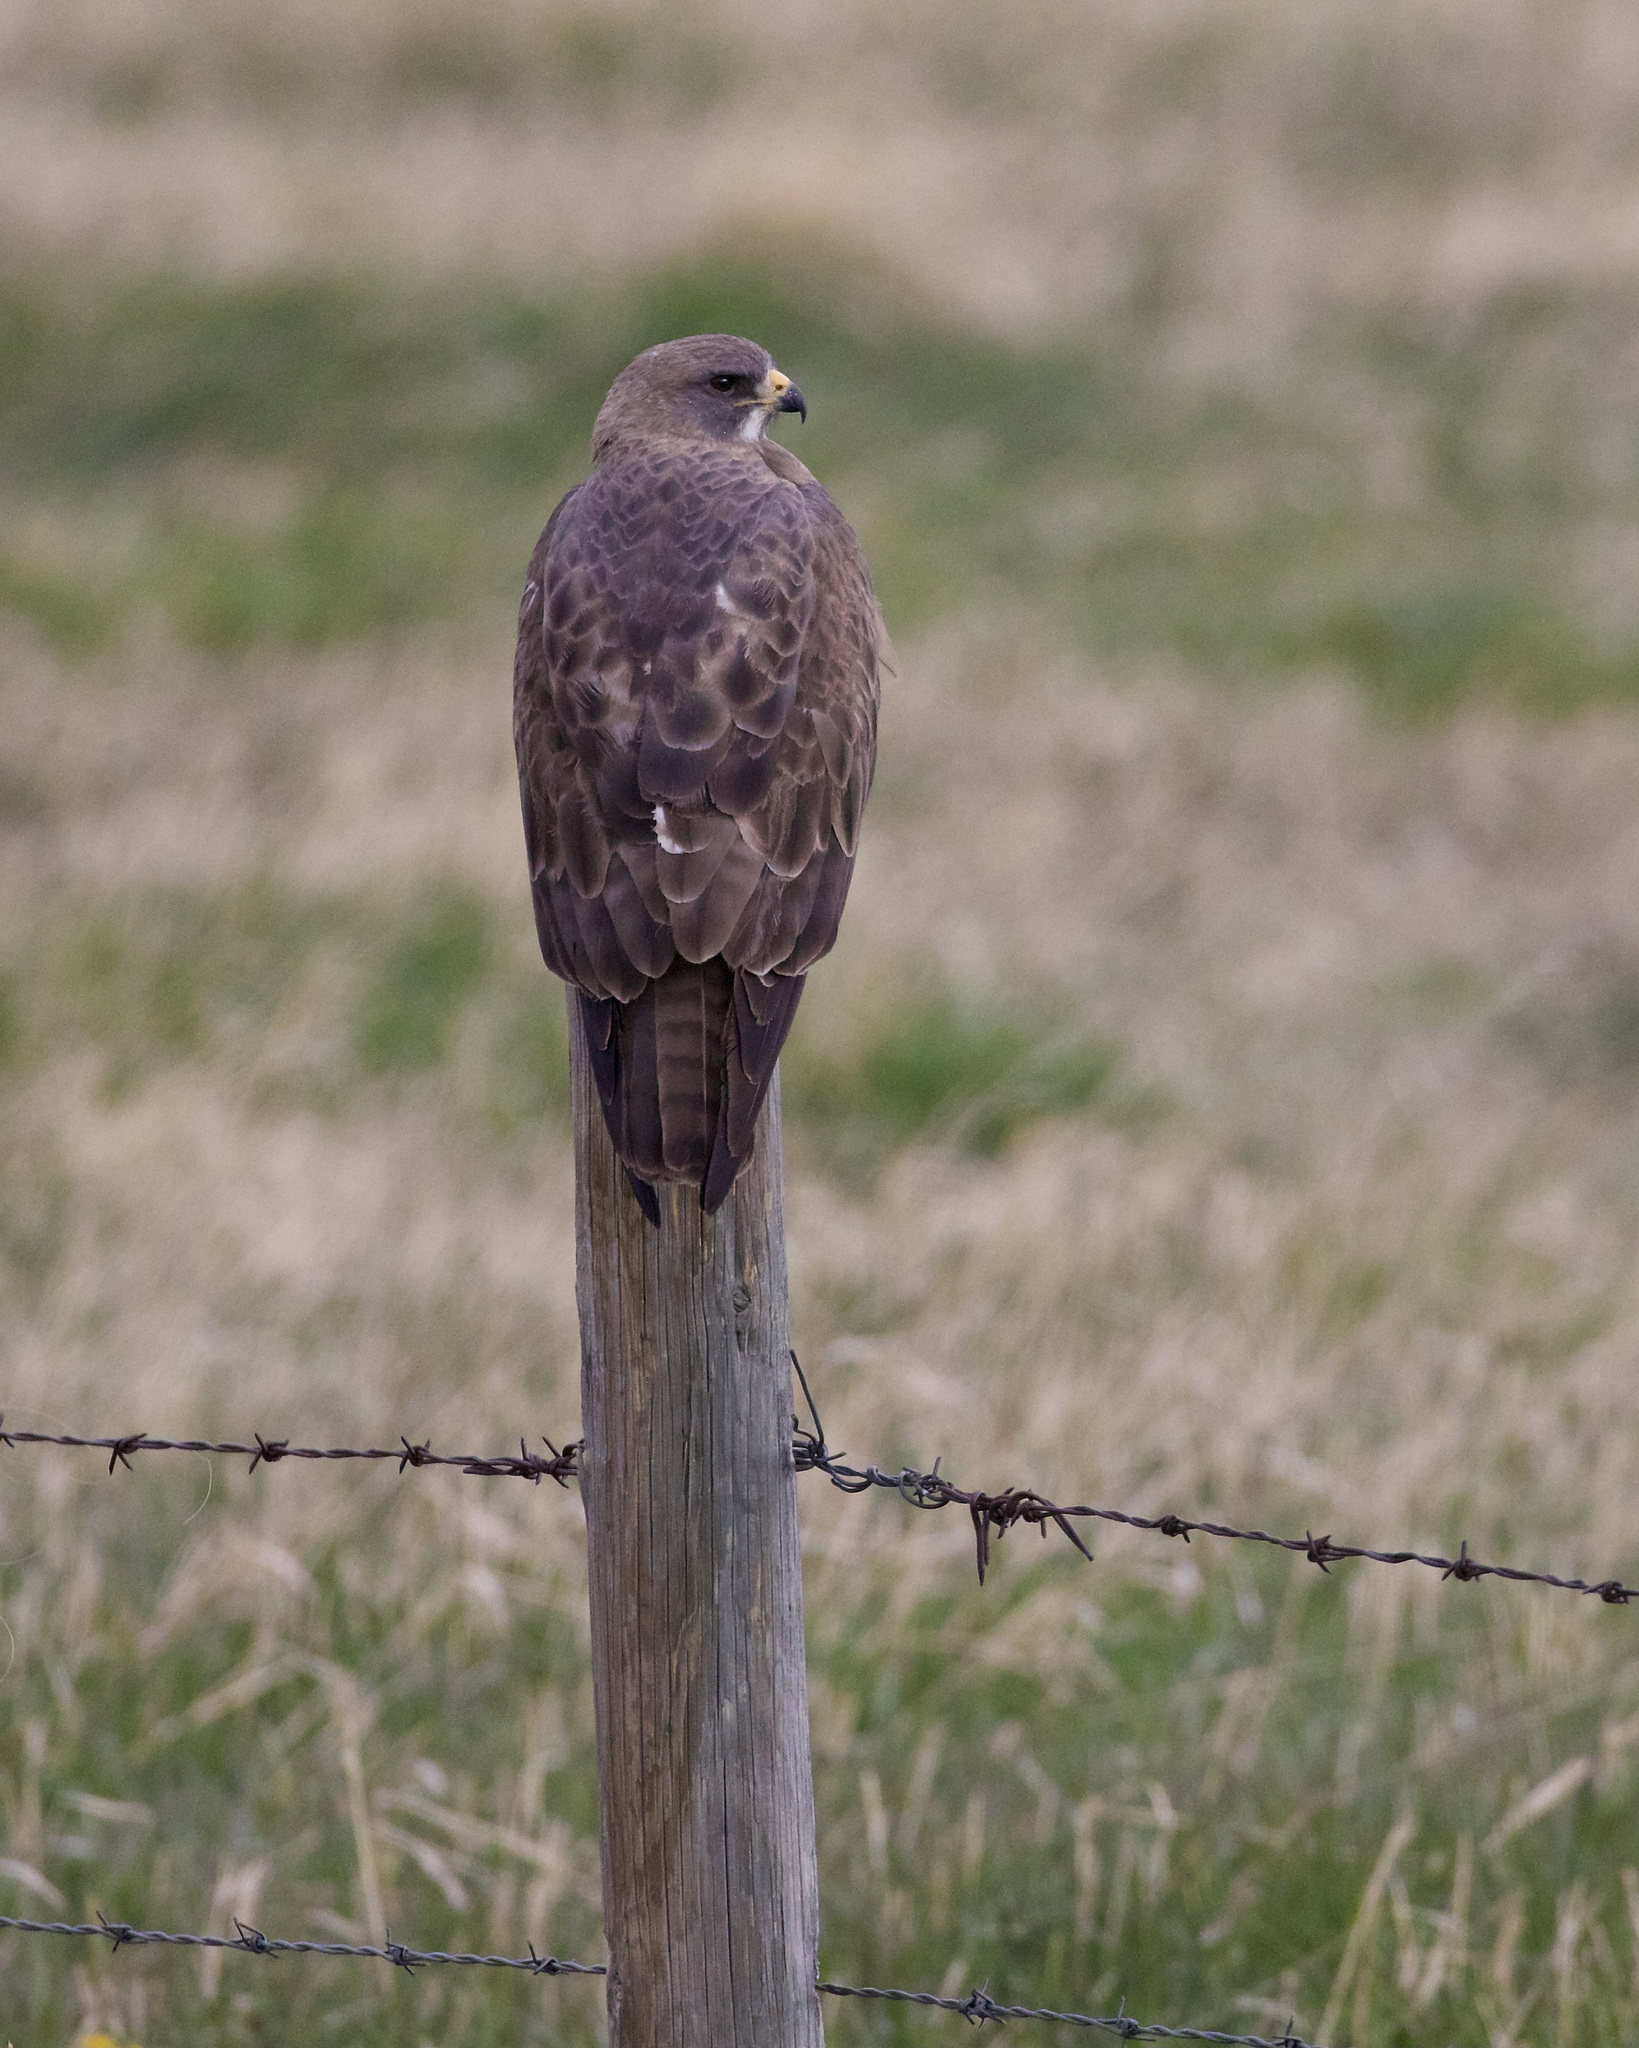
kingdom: Animalia
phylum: Chordata
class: Aves
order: Accipitriformes
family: Accipitridae
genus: Buteo
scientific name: Buteo swainsoni
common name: Swainson's hawk
